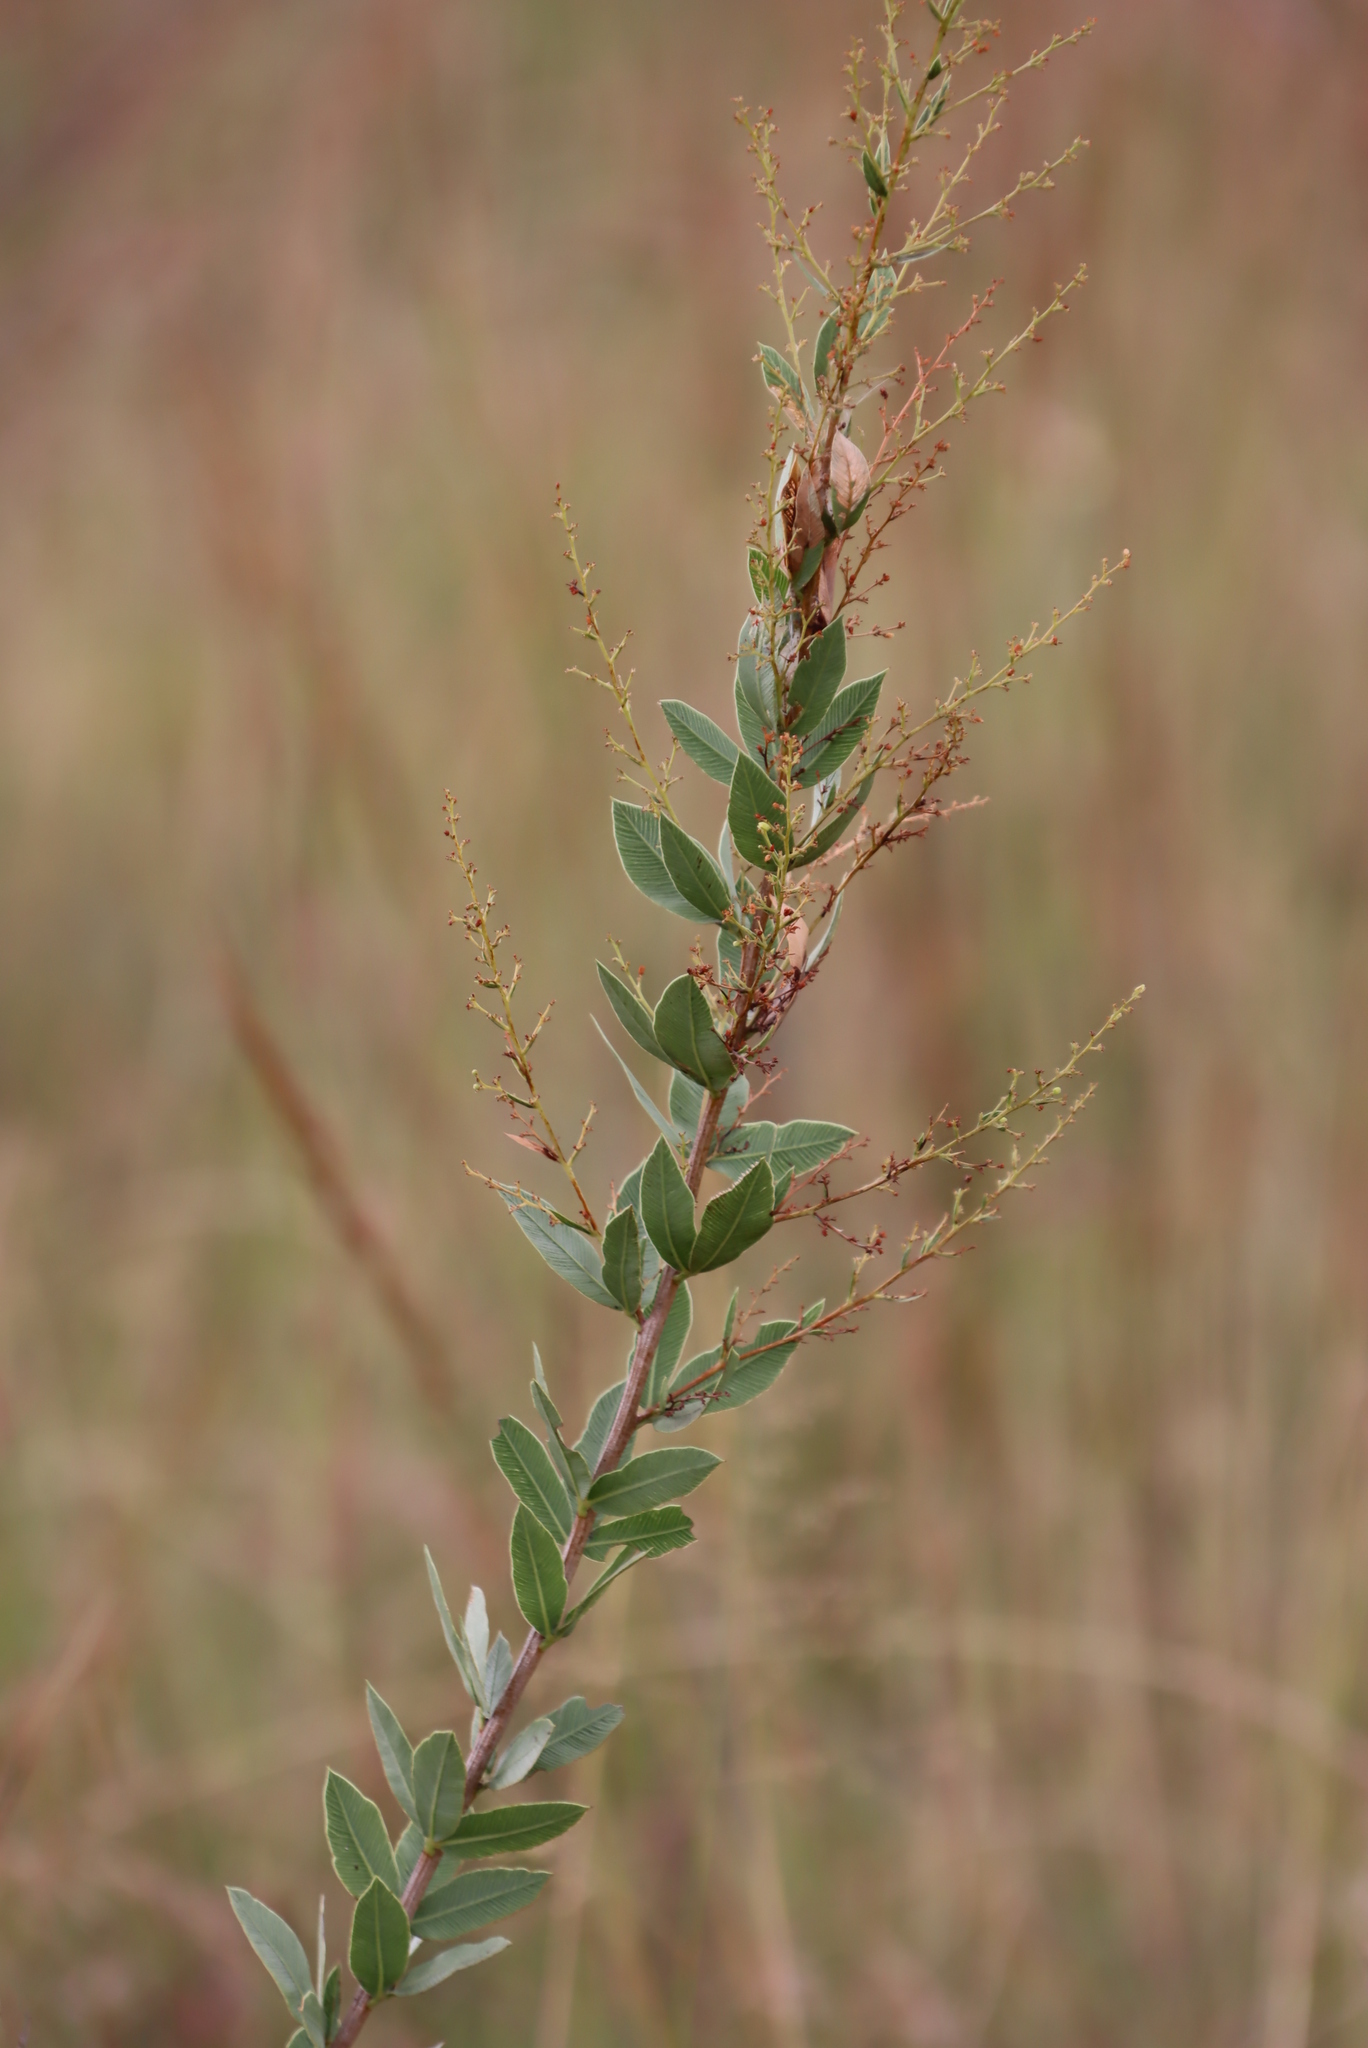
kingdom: Plantae
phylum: Tracheophyta
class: Magnoliopsida
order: Fabales
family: Fabaceae
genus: Pseudarthria
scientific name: Pseudarthria hookeri
